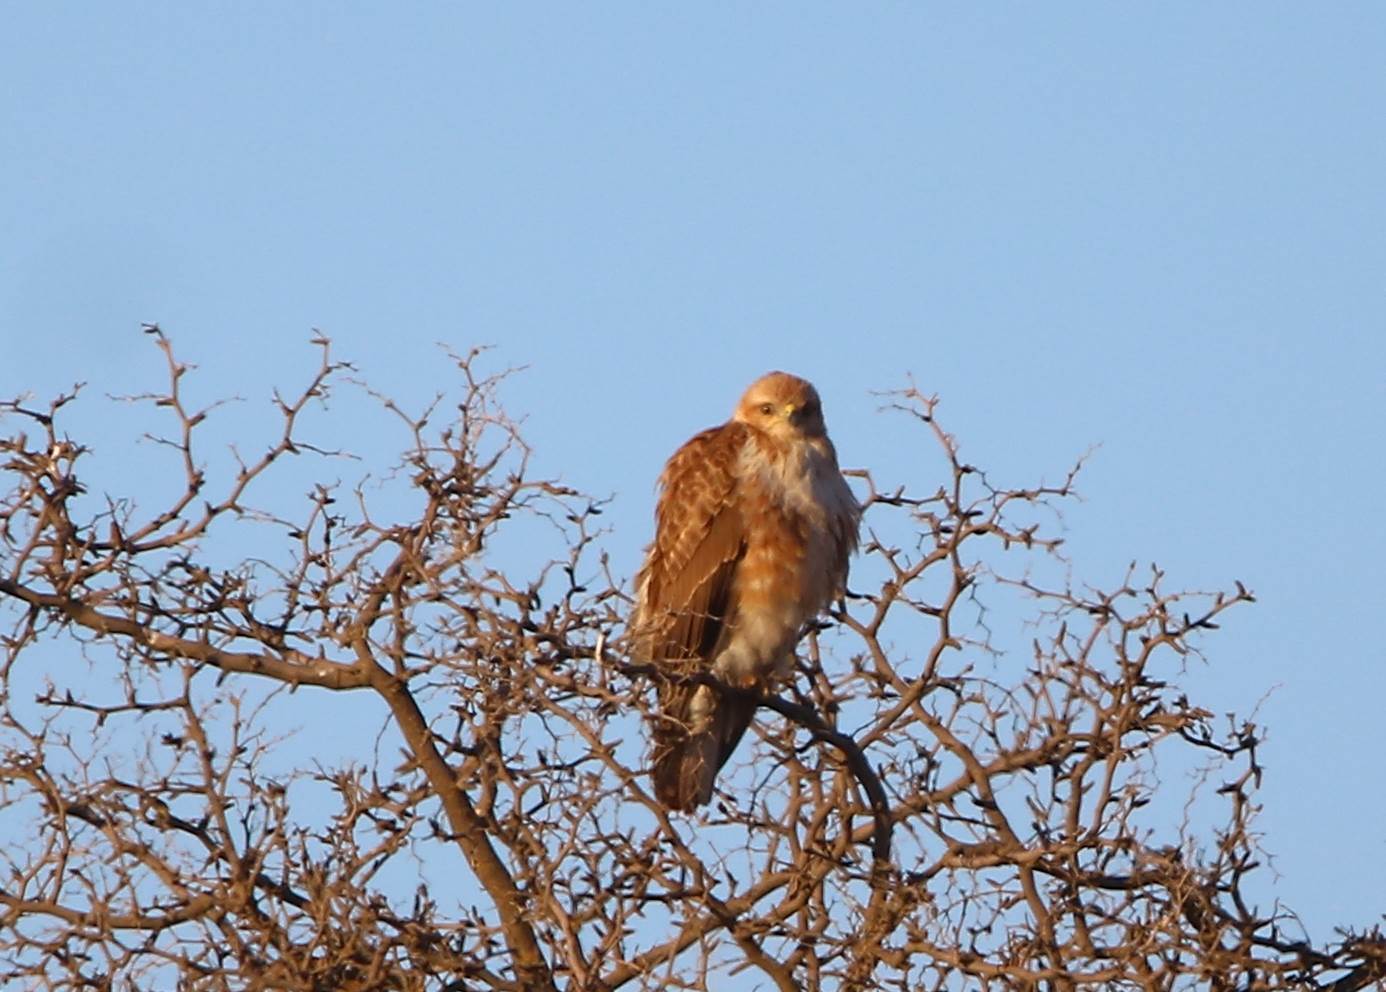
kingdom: Animalia
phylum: Chordata
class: Aves
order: Accipitriformes
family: Accipitridae
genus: Buteo
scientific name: Buteo rufinus
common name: Long-legged buzzard
